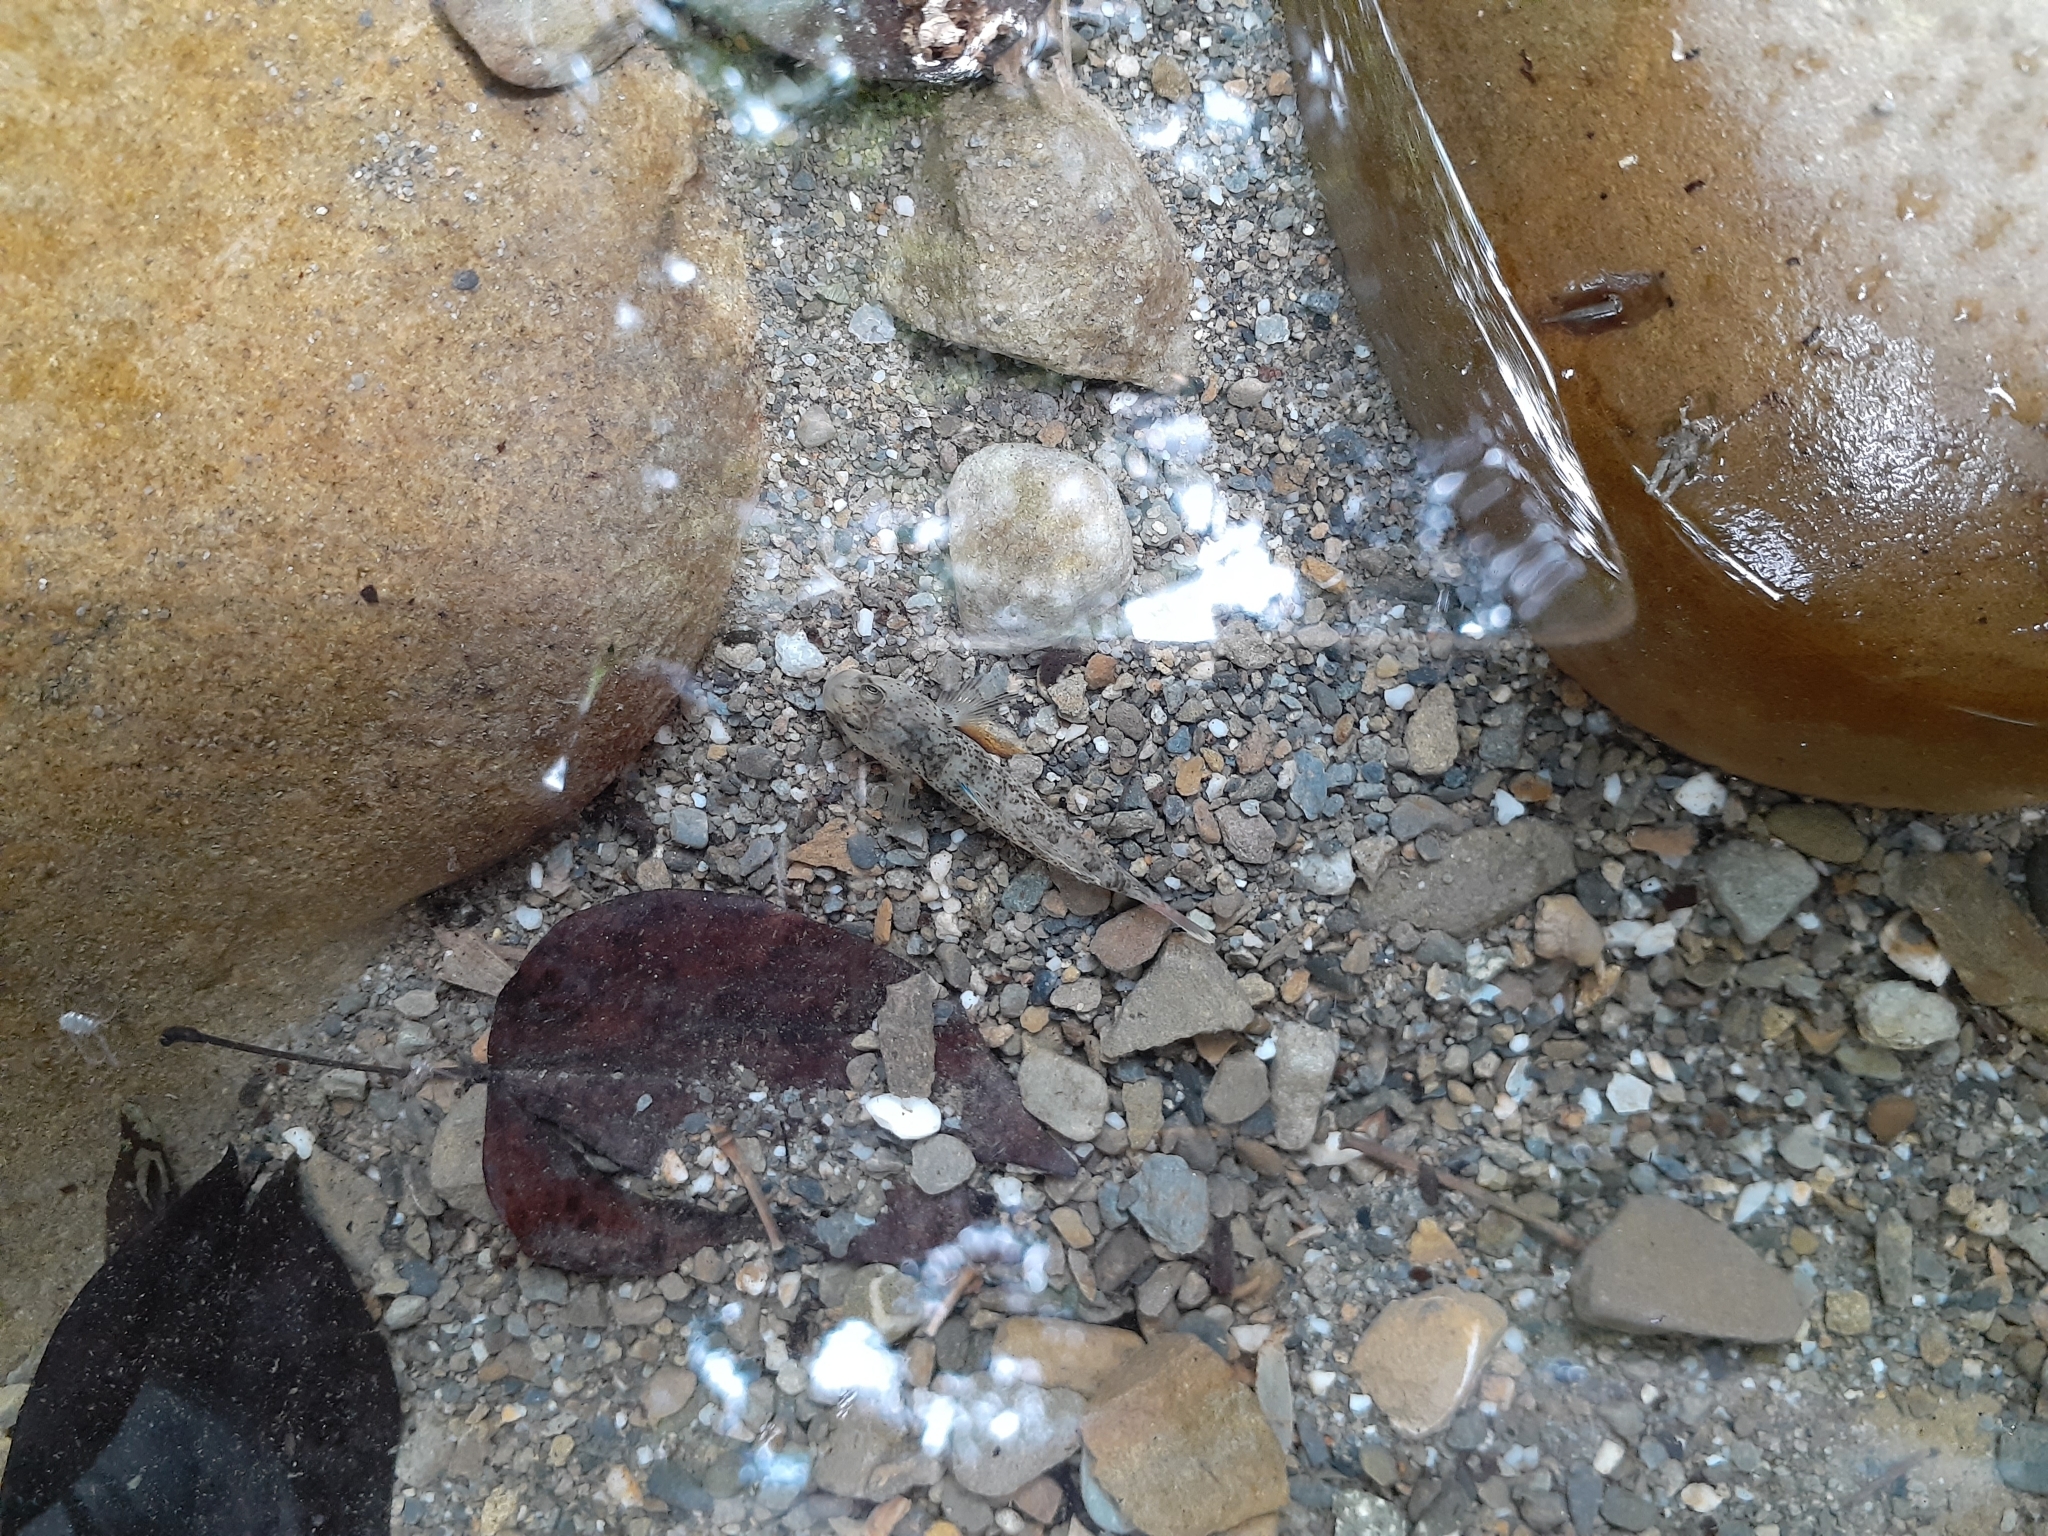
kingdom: Animalia
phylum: Chordata
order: Perciformes
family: Gobiidae
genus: Rhinogobius
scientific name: Rhinogobius rubromaculatus
